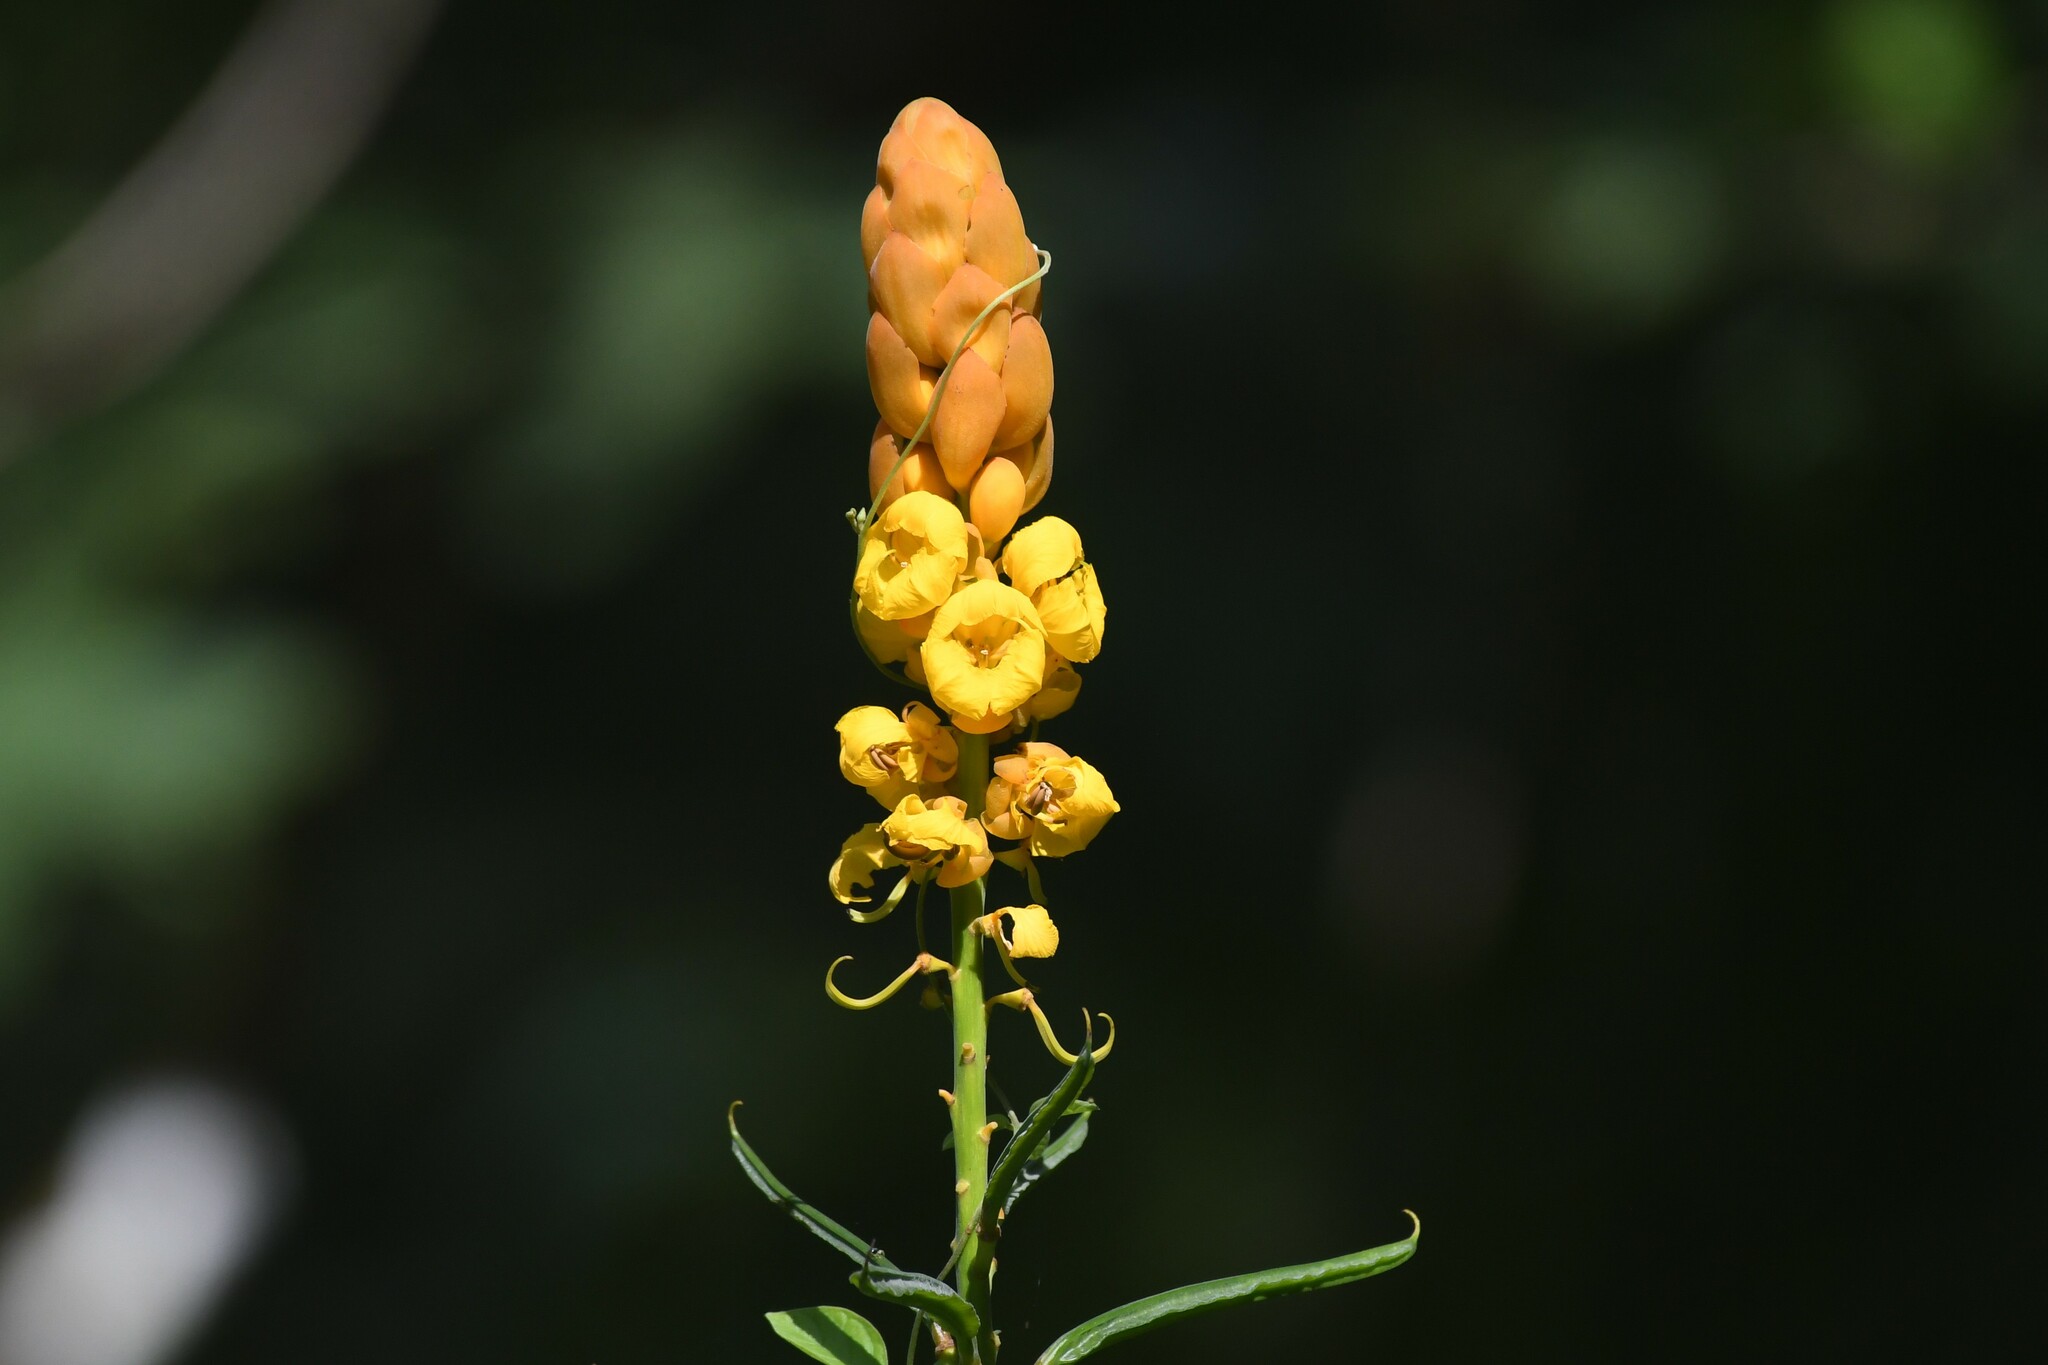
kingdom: Plantae
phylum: Tracheophyta
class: Magnoliopsida
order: Fabales
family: Fabaceae
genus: Senna
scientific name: Senna alata
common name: Emperor's candlesticks
